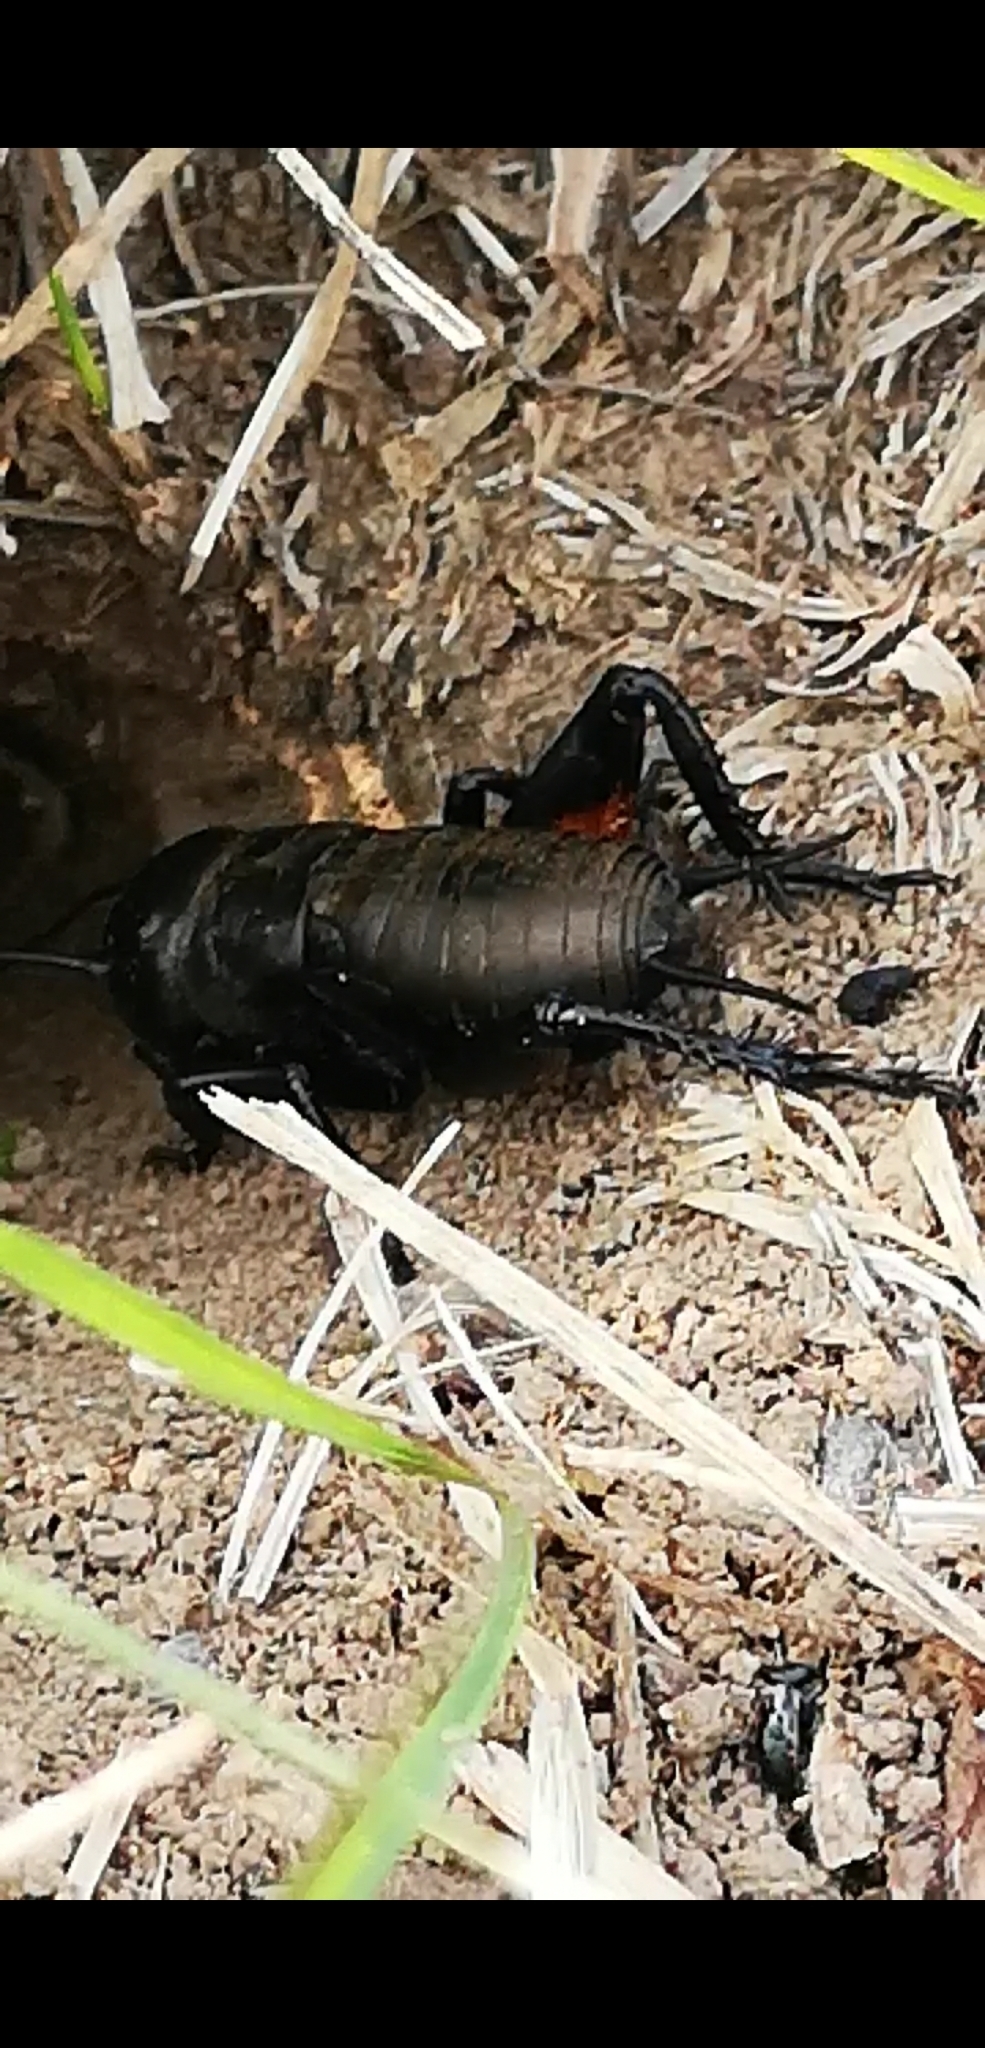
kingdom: Animalia
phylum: Arthropoda
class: Insecta
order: Orthoptera
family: Gryllidae
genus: Gryllus
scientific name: Gryllus campestris
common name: Field cricket
